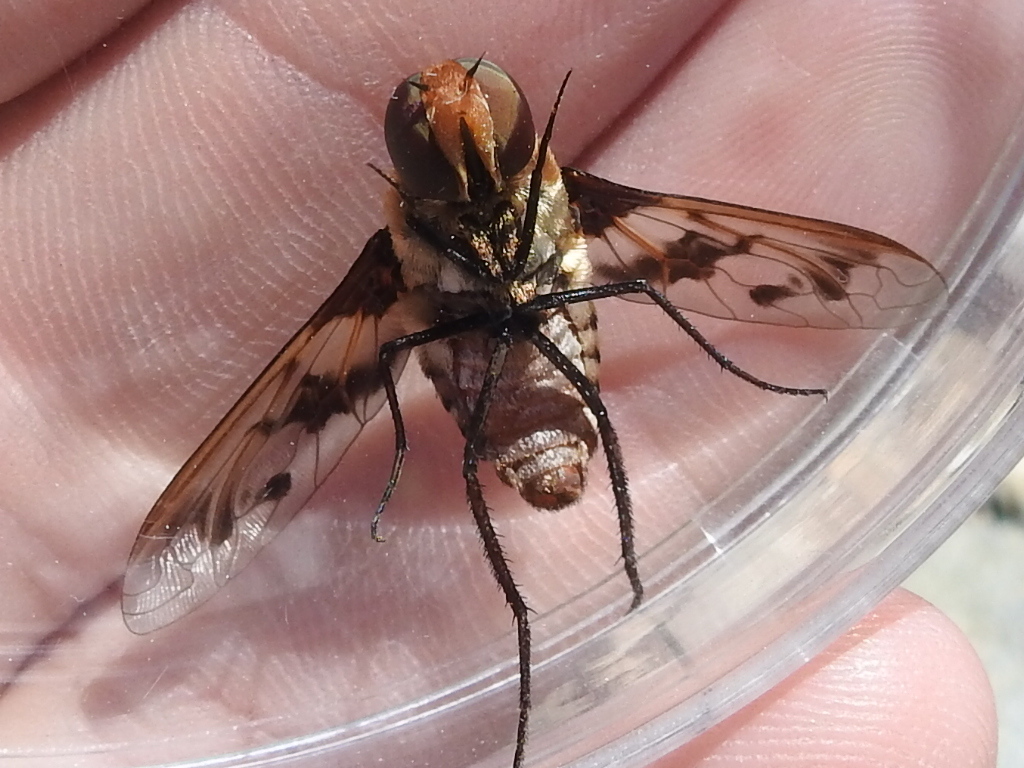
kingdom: Animalia
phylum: Arthropoda
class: Insecta
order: Diptera
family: Bombyliidae
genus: Exoprosopa
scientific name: Exoprosopa
